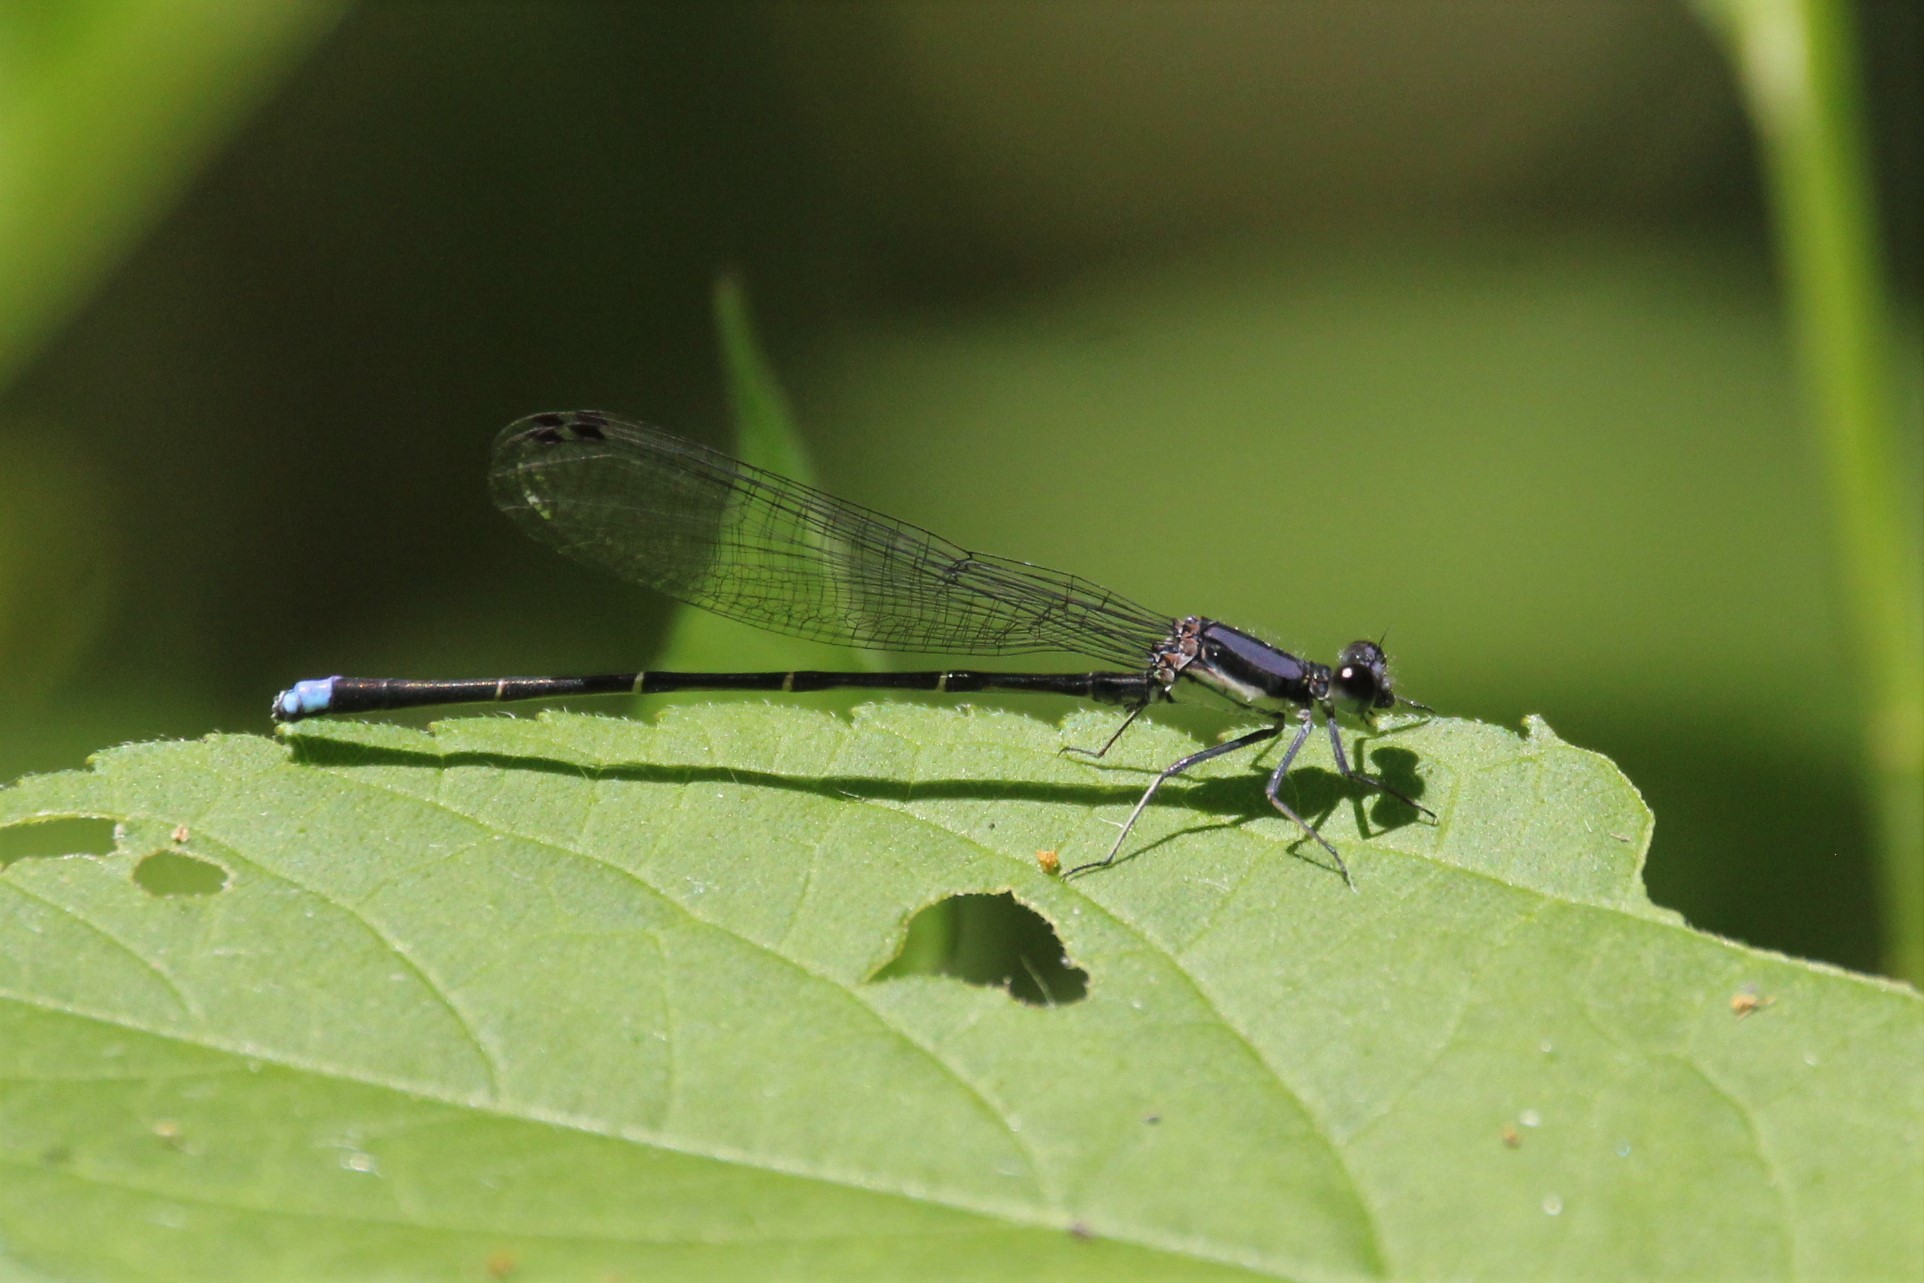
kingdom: Animalia
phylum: Arthropoda
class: Insecta
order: Odonata
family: Coenagrionidae
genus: Argia
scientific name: Argia tibialis
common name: Blue-tipped dancer
